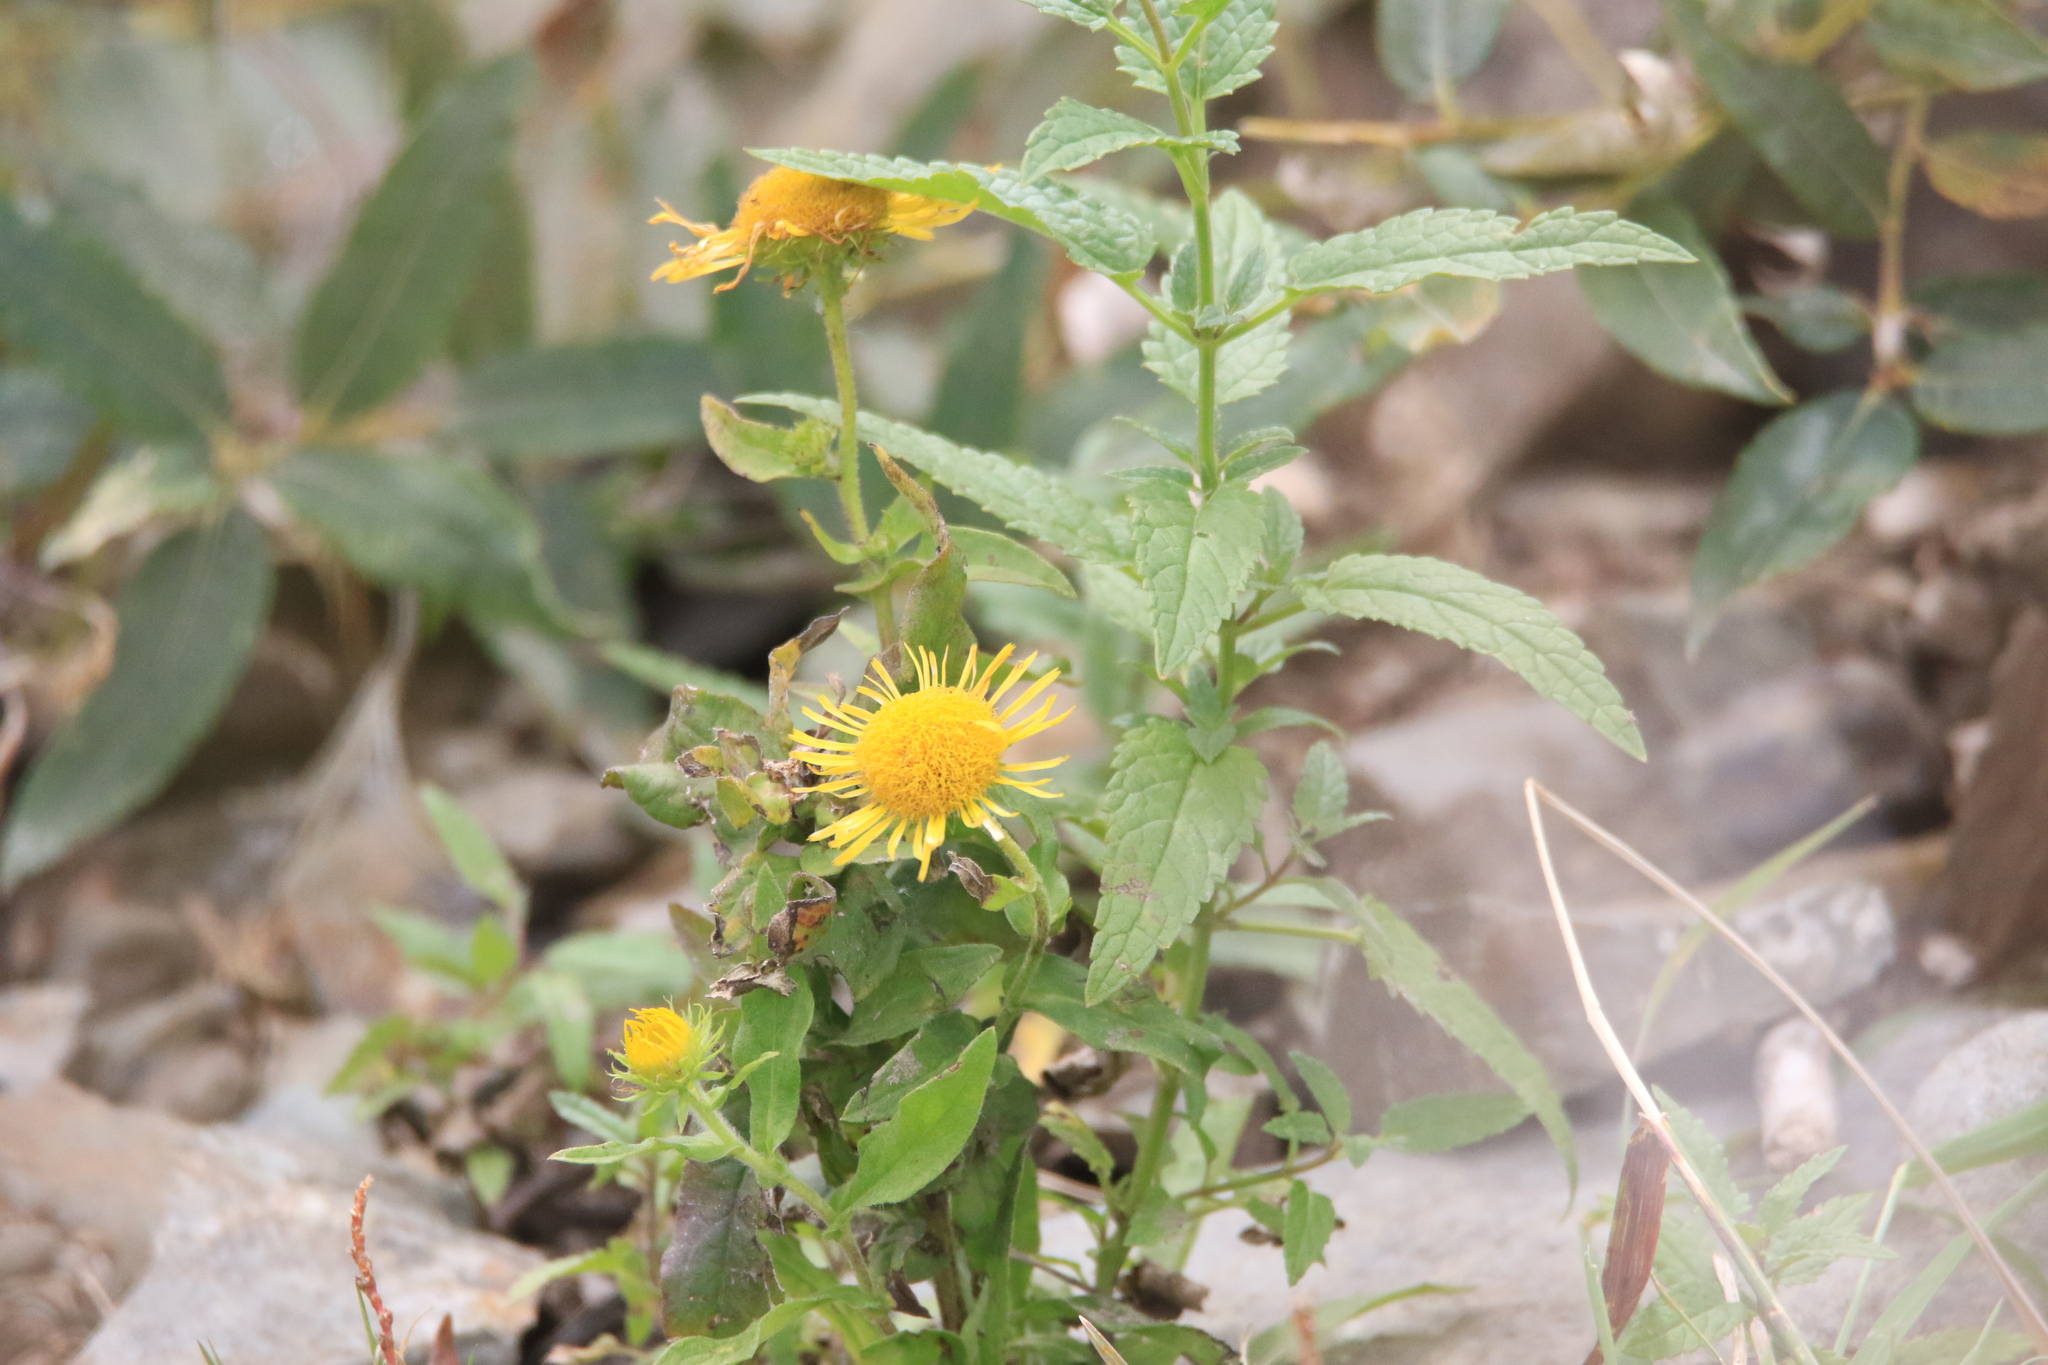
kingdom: Plantae
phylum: Tracheophyta
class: Magnoliopsida
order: Asterales
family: Asteraceae
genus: Pentanema
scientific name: Pentanema britannicum
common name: British elecampane
